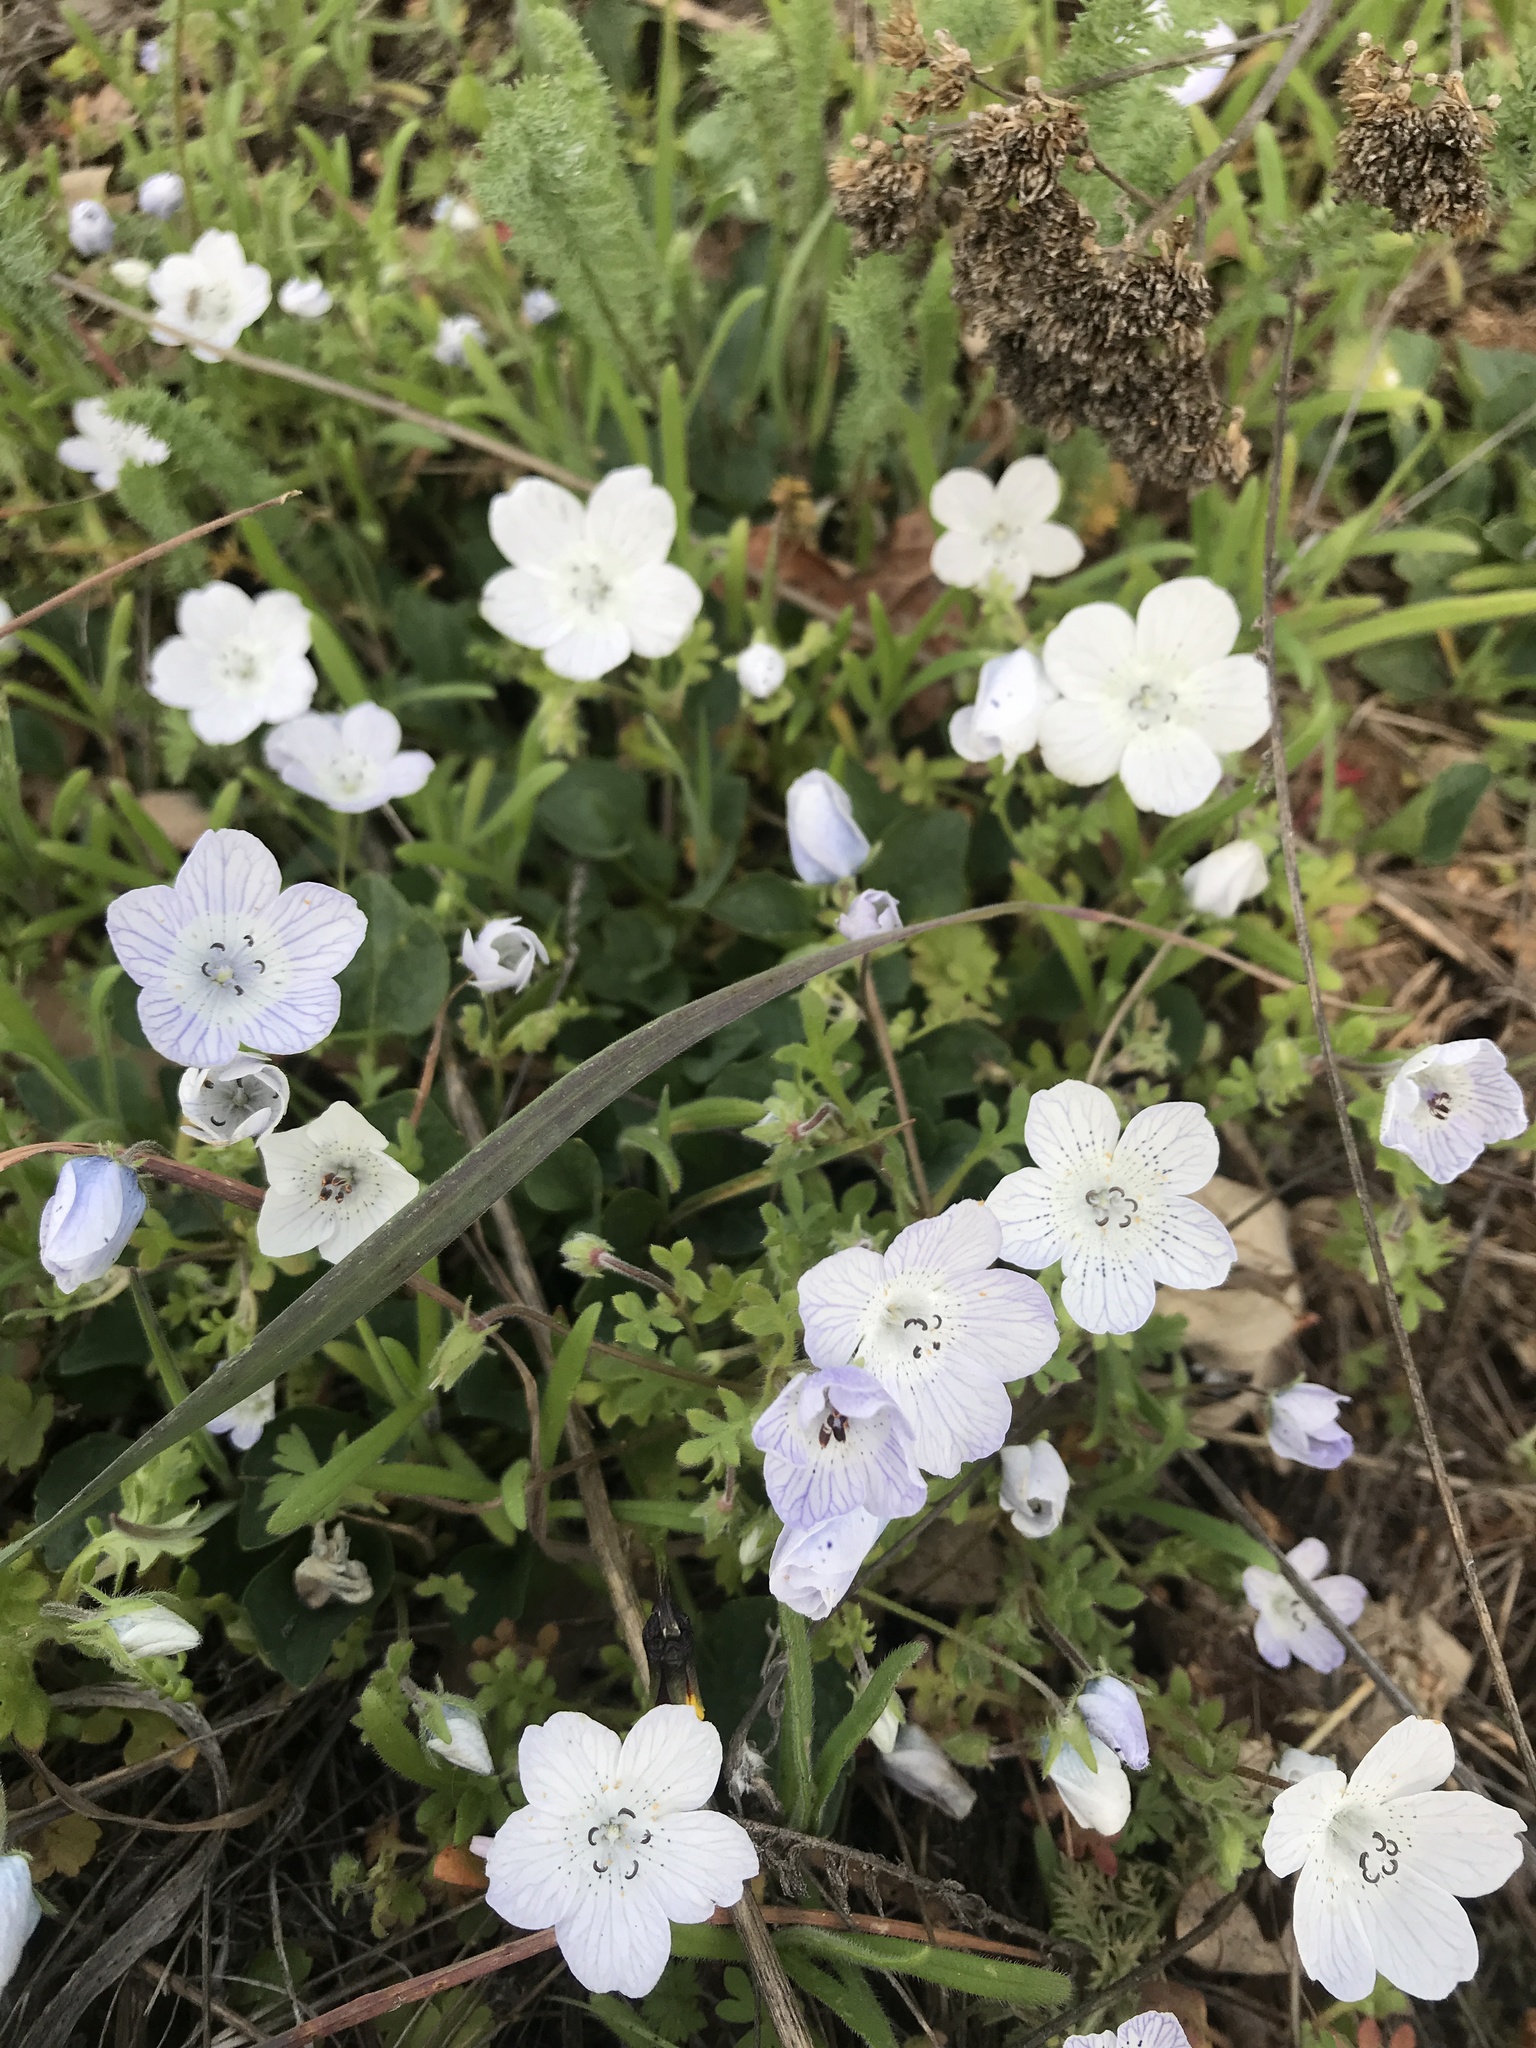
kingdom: Plantae
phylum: Tracheophyta
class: Magnoliopsida
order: Boraginales
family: Hydrophyllaceae
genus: Nemophila
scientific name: Nemophila menziesii
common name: Baby's-blue-eyes
